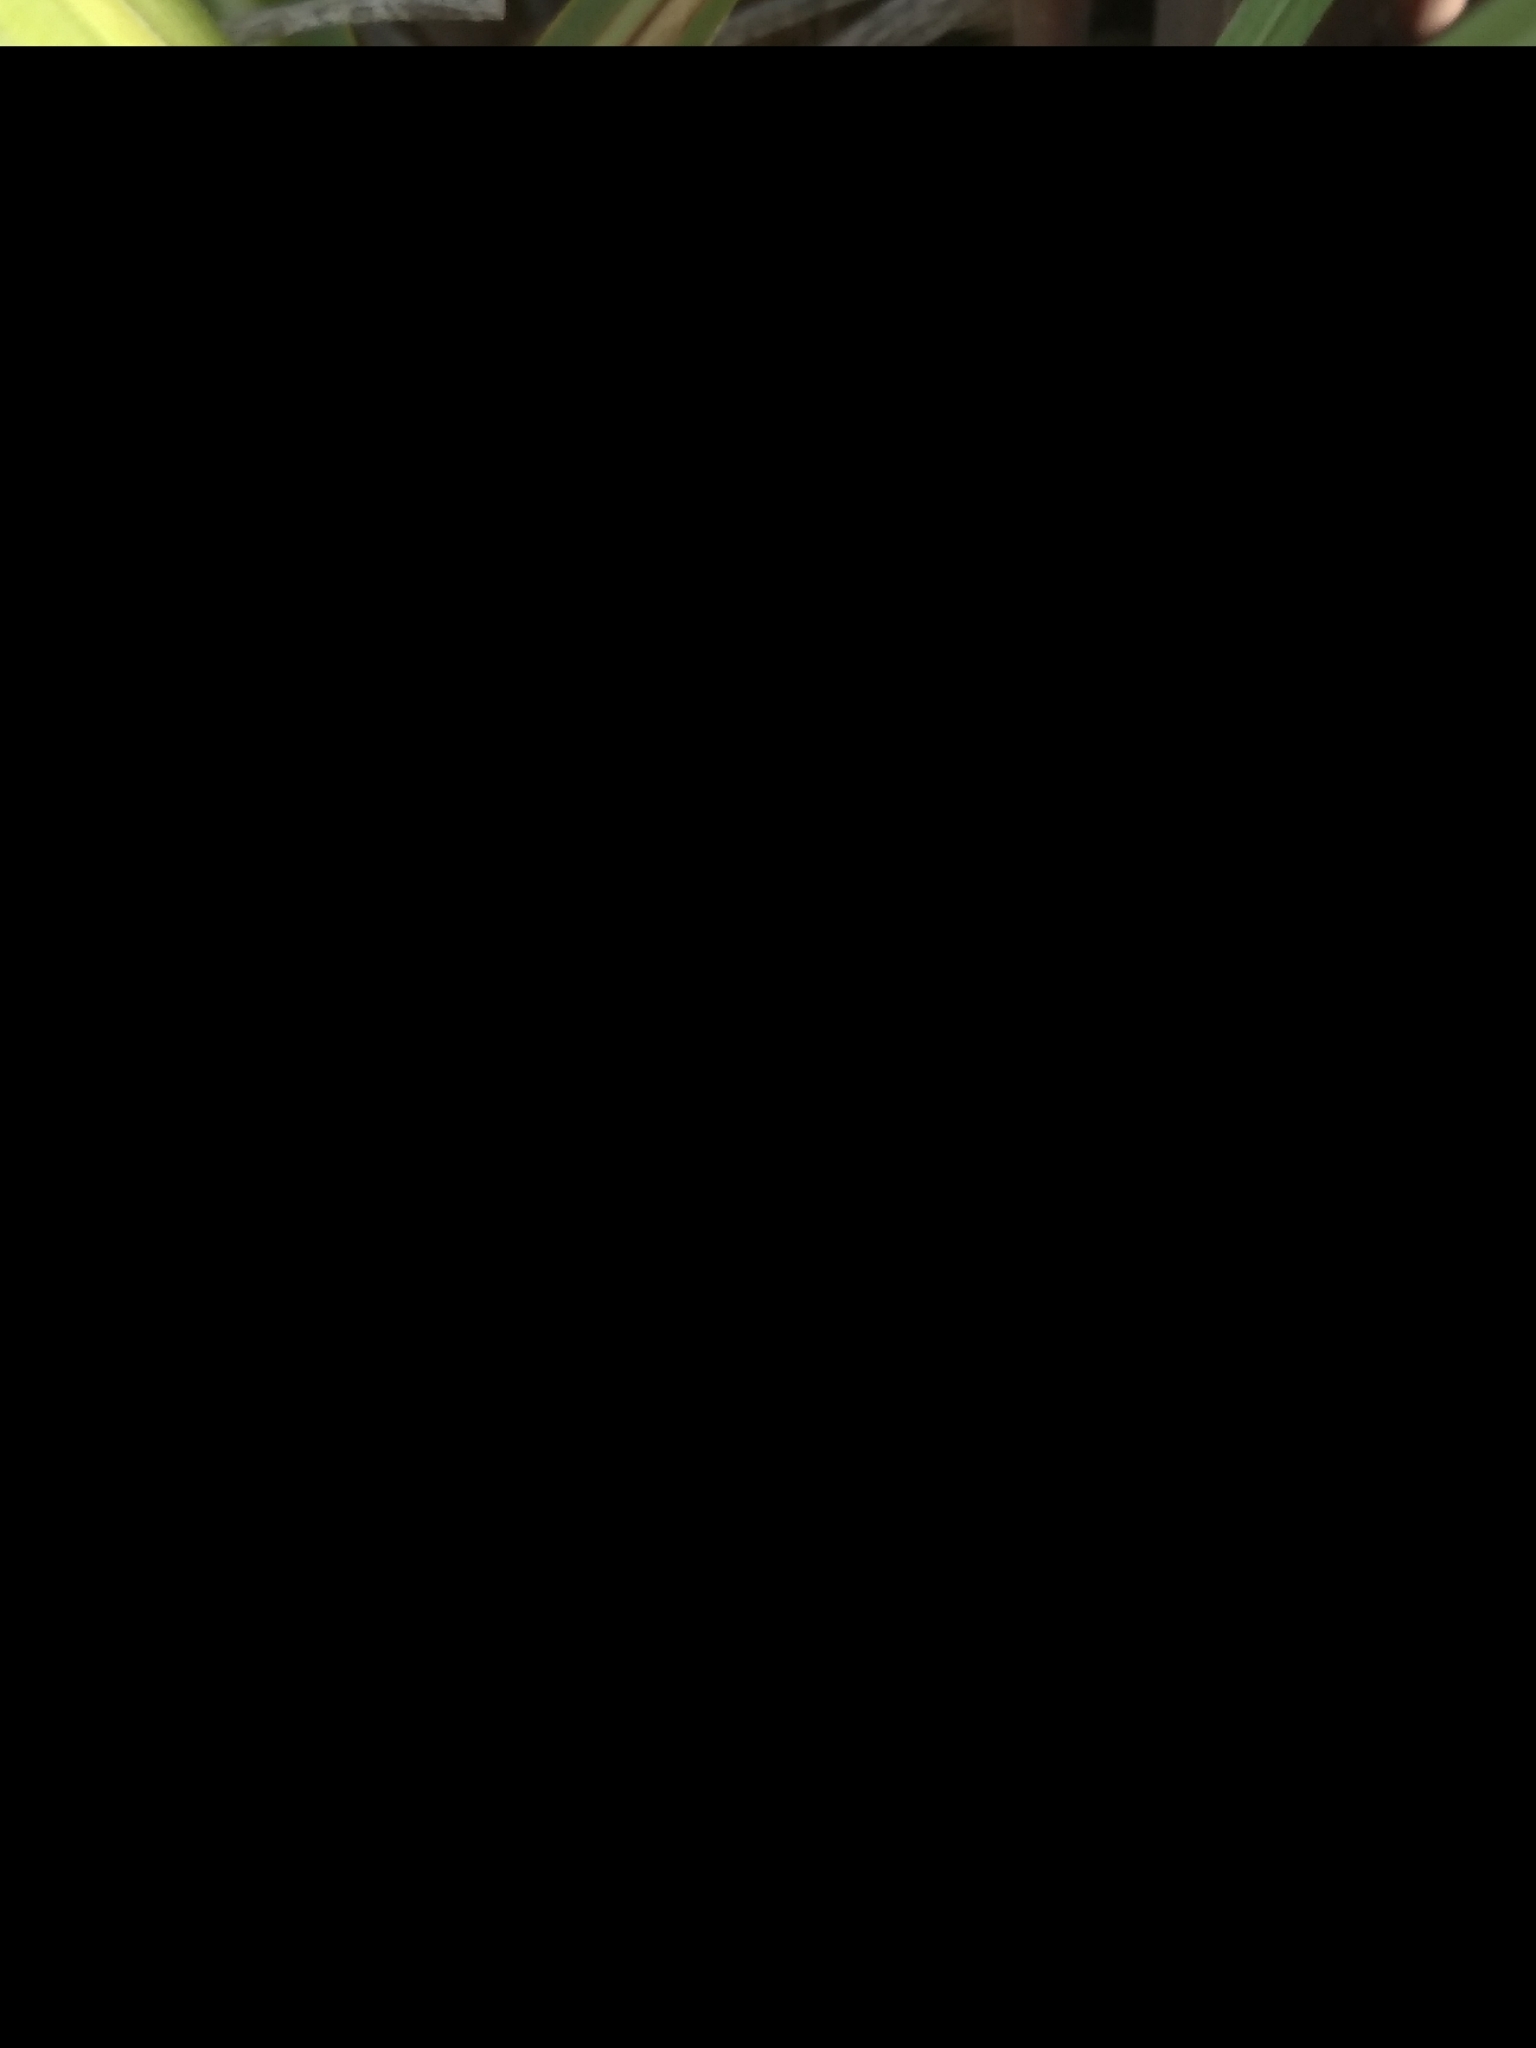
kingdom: Animalia
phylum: Arthropoda
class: Insecta
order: Orthoptera
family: Romaleidae
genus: Chromacris
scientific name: Chromacris speciosa
